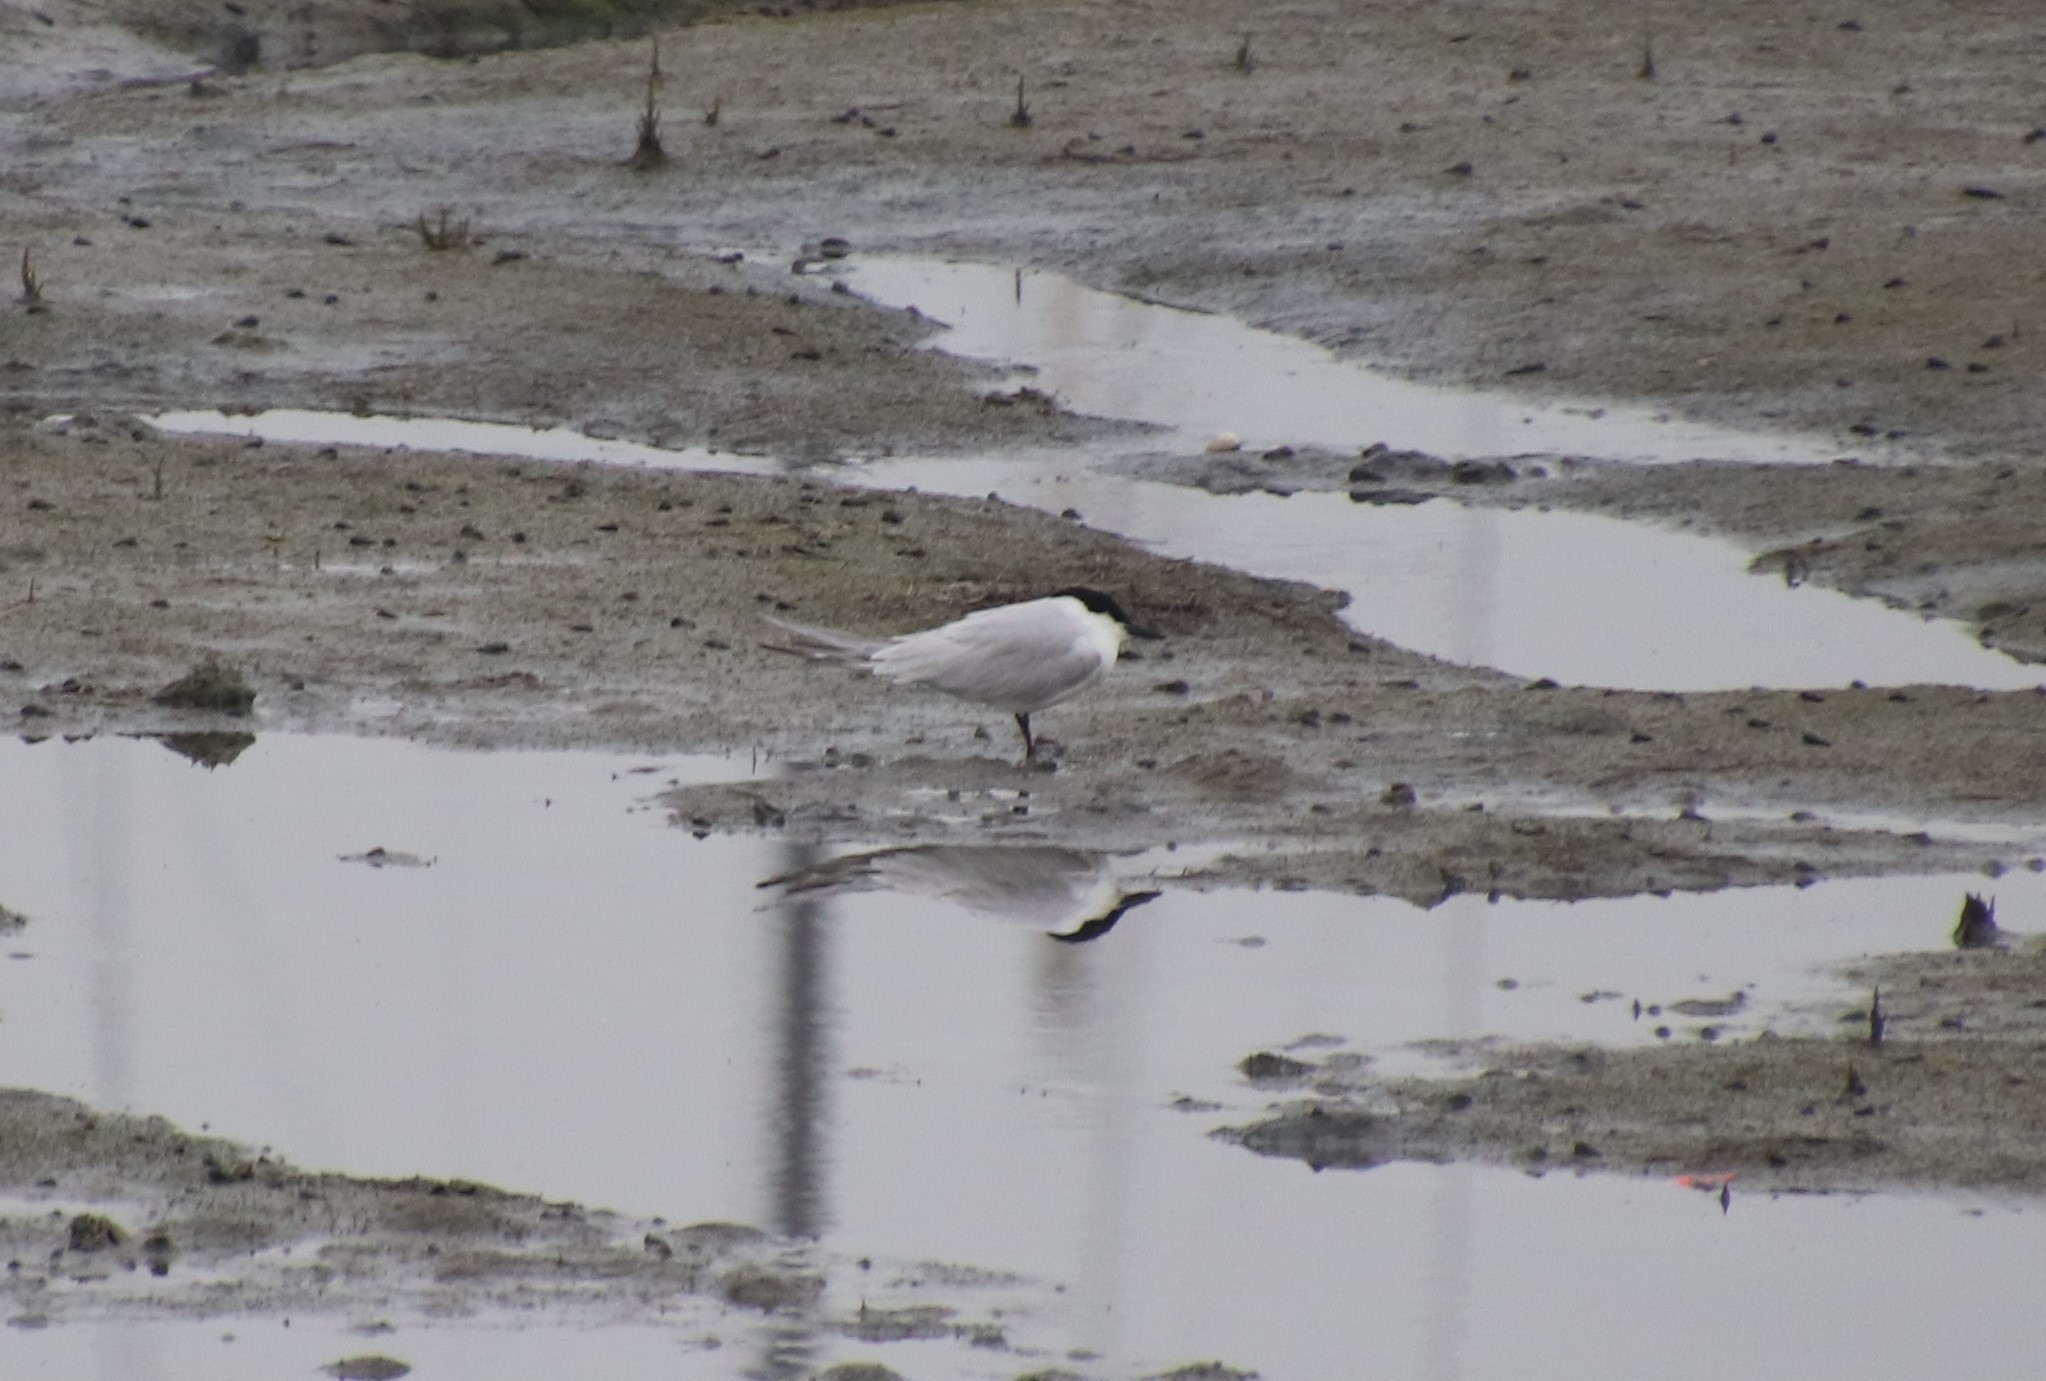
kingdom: Animalia
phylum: Chordata
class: Aves
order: Charadriiformes
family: Laridae
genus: Gelochelidon
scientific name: Gelochelidon nilotica
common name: Gull-billed tern
